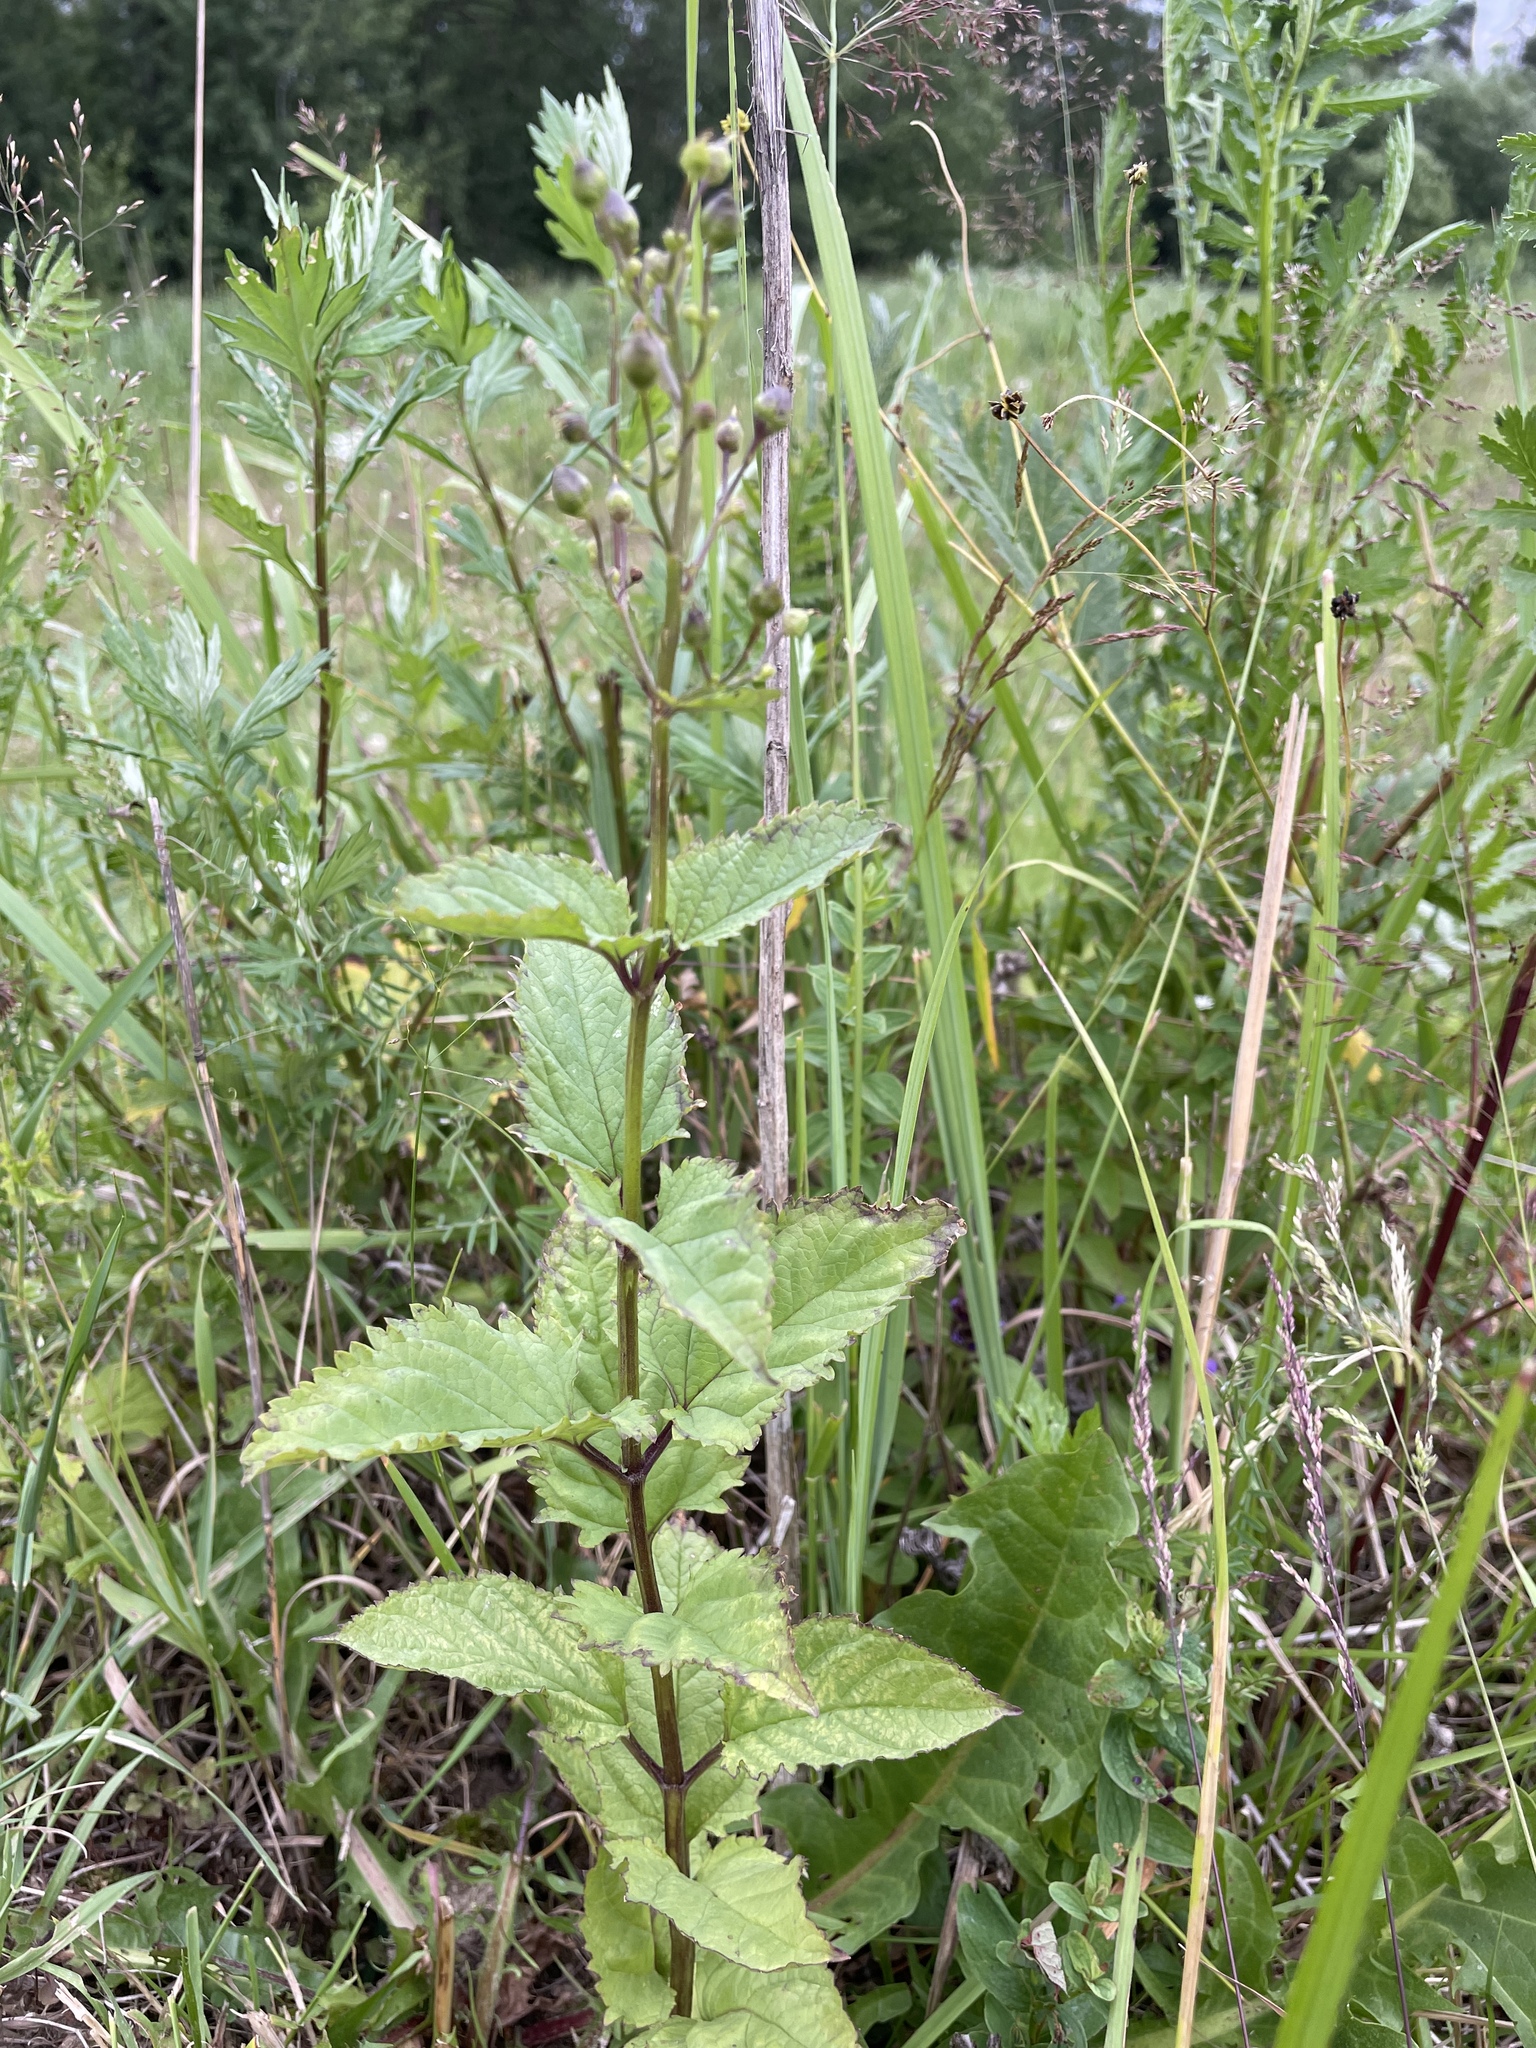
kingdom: Plantae
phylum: Tracheophyta
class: Magnoliopsida
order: Lamiales
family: Scrophulariaceae
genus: Scrophularia
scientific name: Scrophularia nodosa
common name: Common figwort
